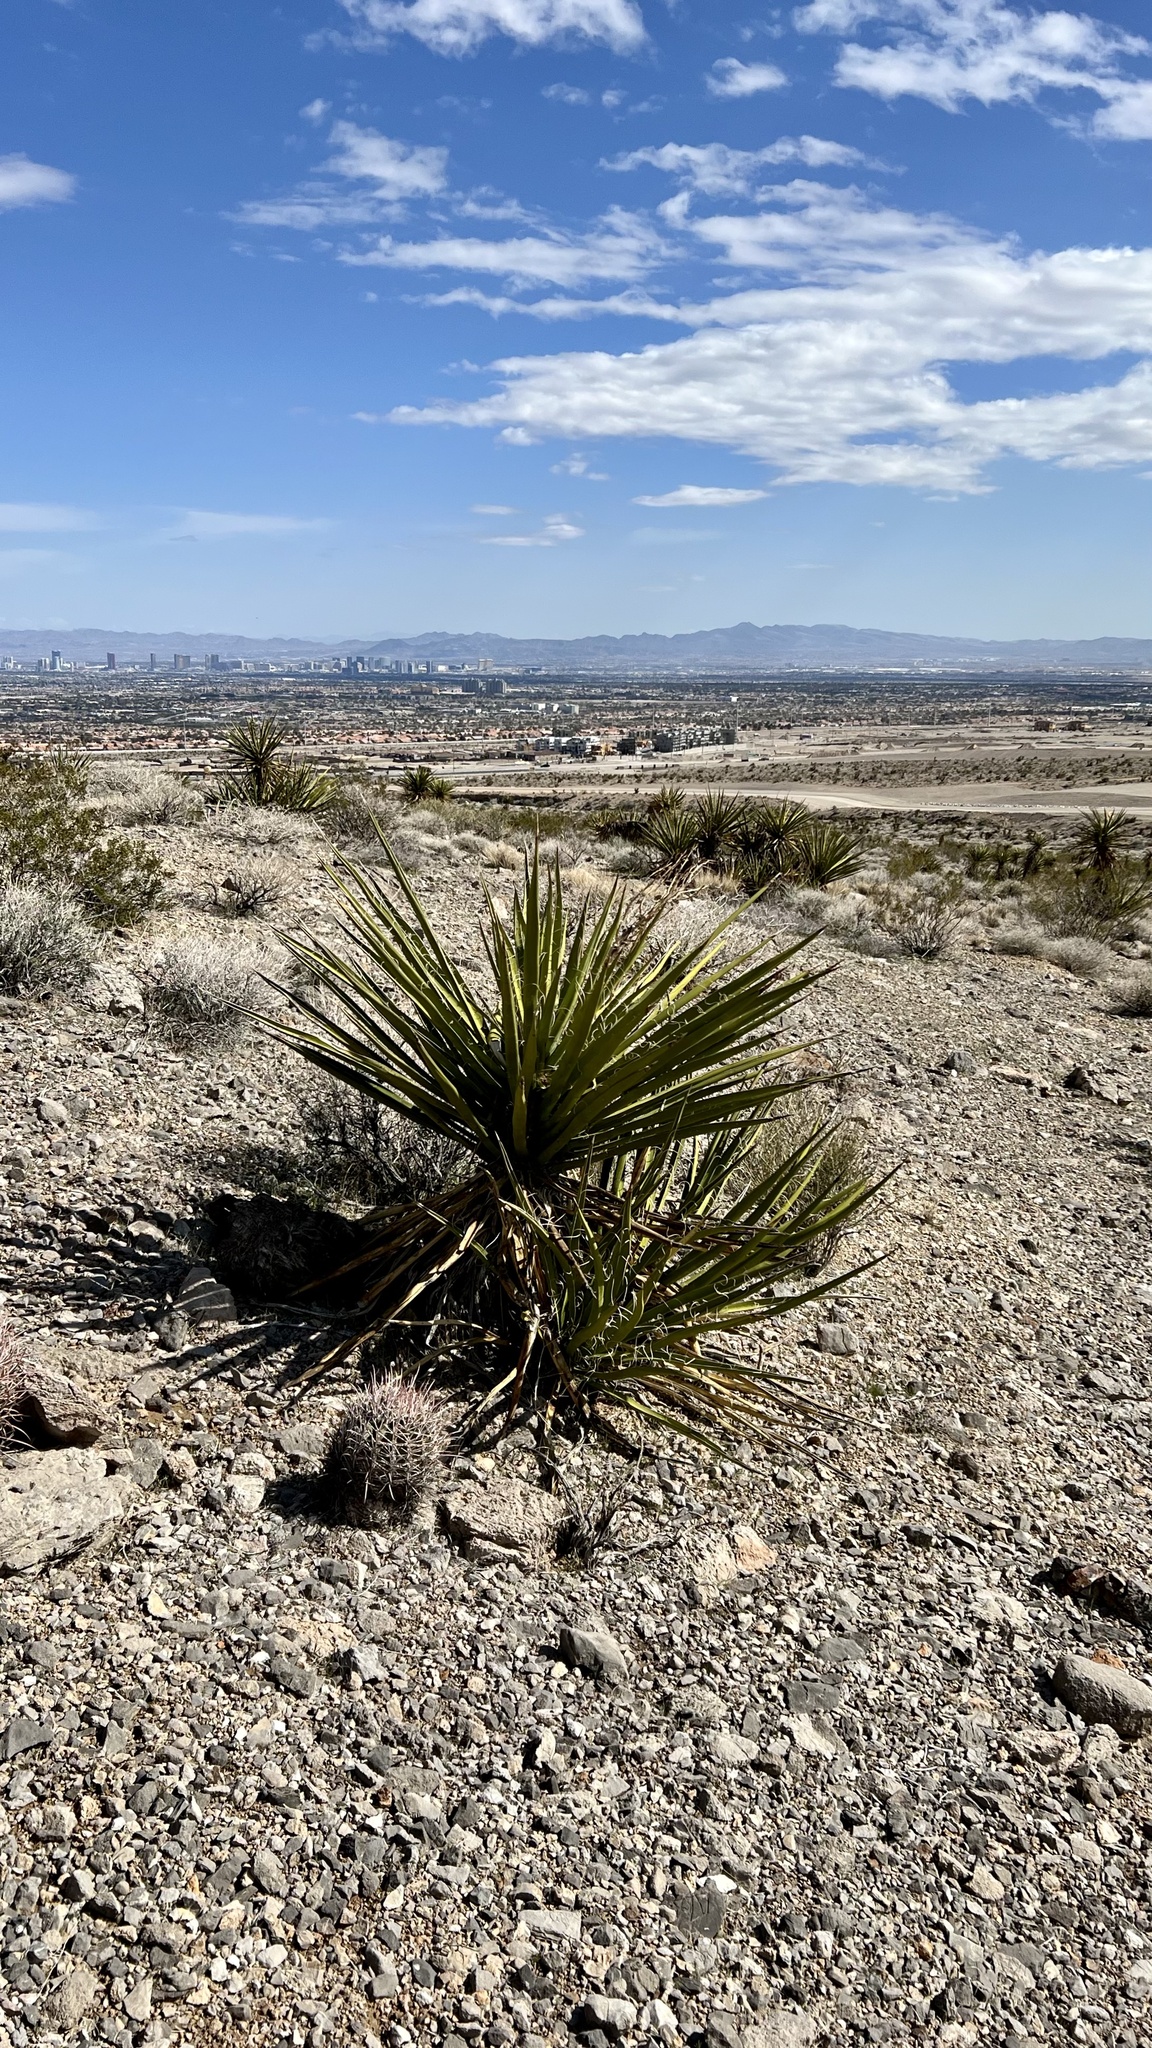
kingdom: Plantae
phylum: Tracheophyta
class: Liliopsida
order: Asparagales
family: Asparagaceae
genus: Yucca
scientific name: Yucca schidigera
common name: Mojave yucca
